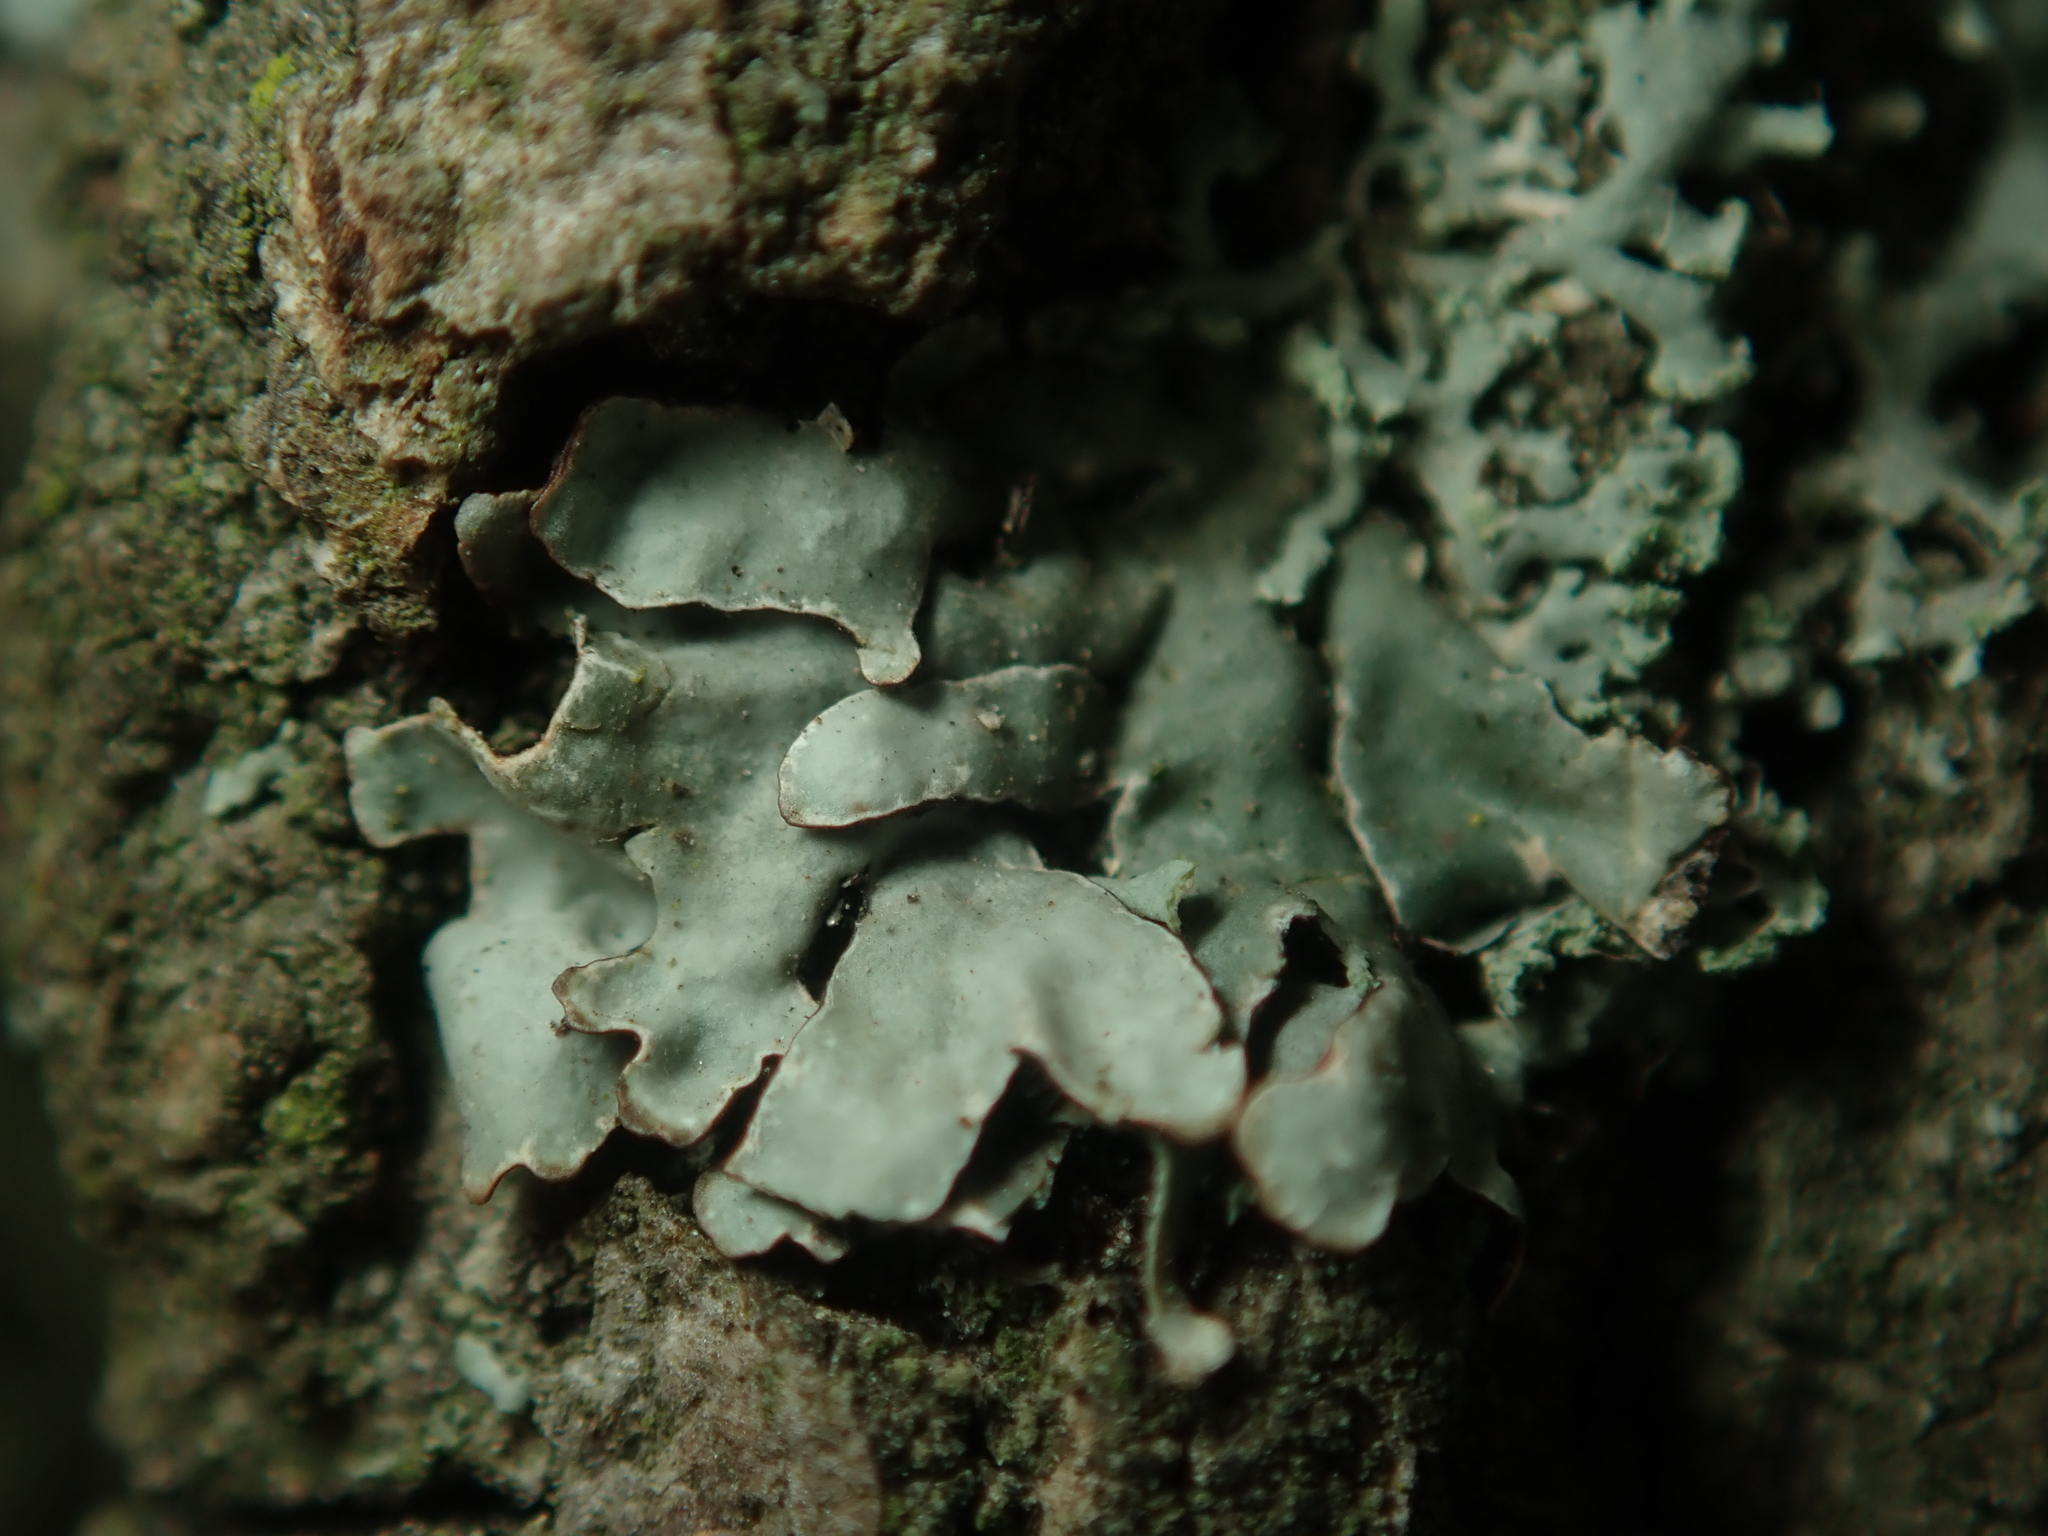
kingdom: Fungi
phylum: Ascomycota
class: Lecanoromycetes
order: Lecanorales
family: Parmeliaceae
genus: Parmelia
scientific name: Parmelia sulcata
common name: Netted shield lichen
